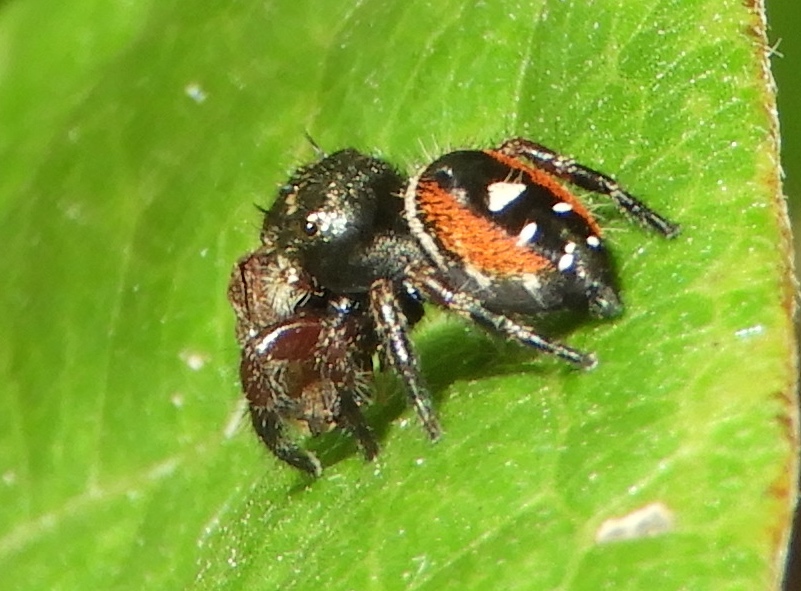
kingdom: Animalia
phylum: Arthropoda
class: Arachnida
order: Araneae
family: Salticidae
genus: Phidippus
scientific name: Phidippus californicus
